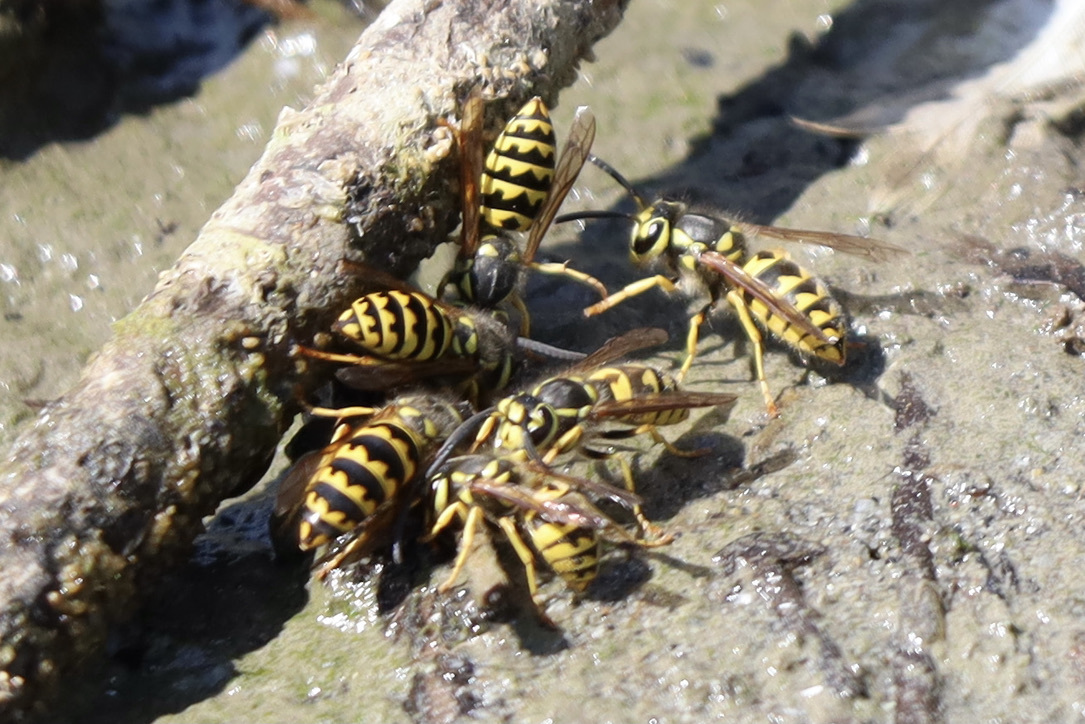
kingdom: Animalia
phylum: Arthropoda
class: Insecta
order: Hymenoptera
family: Vespidae
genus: Vespula
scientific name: Vespula pensylvanica
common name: Western yellowjacket
